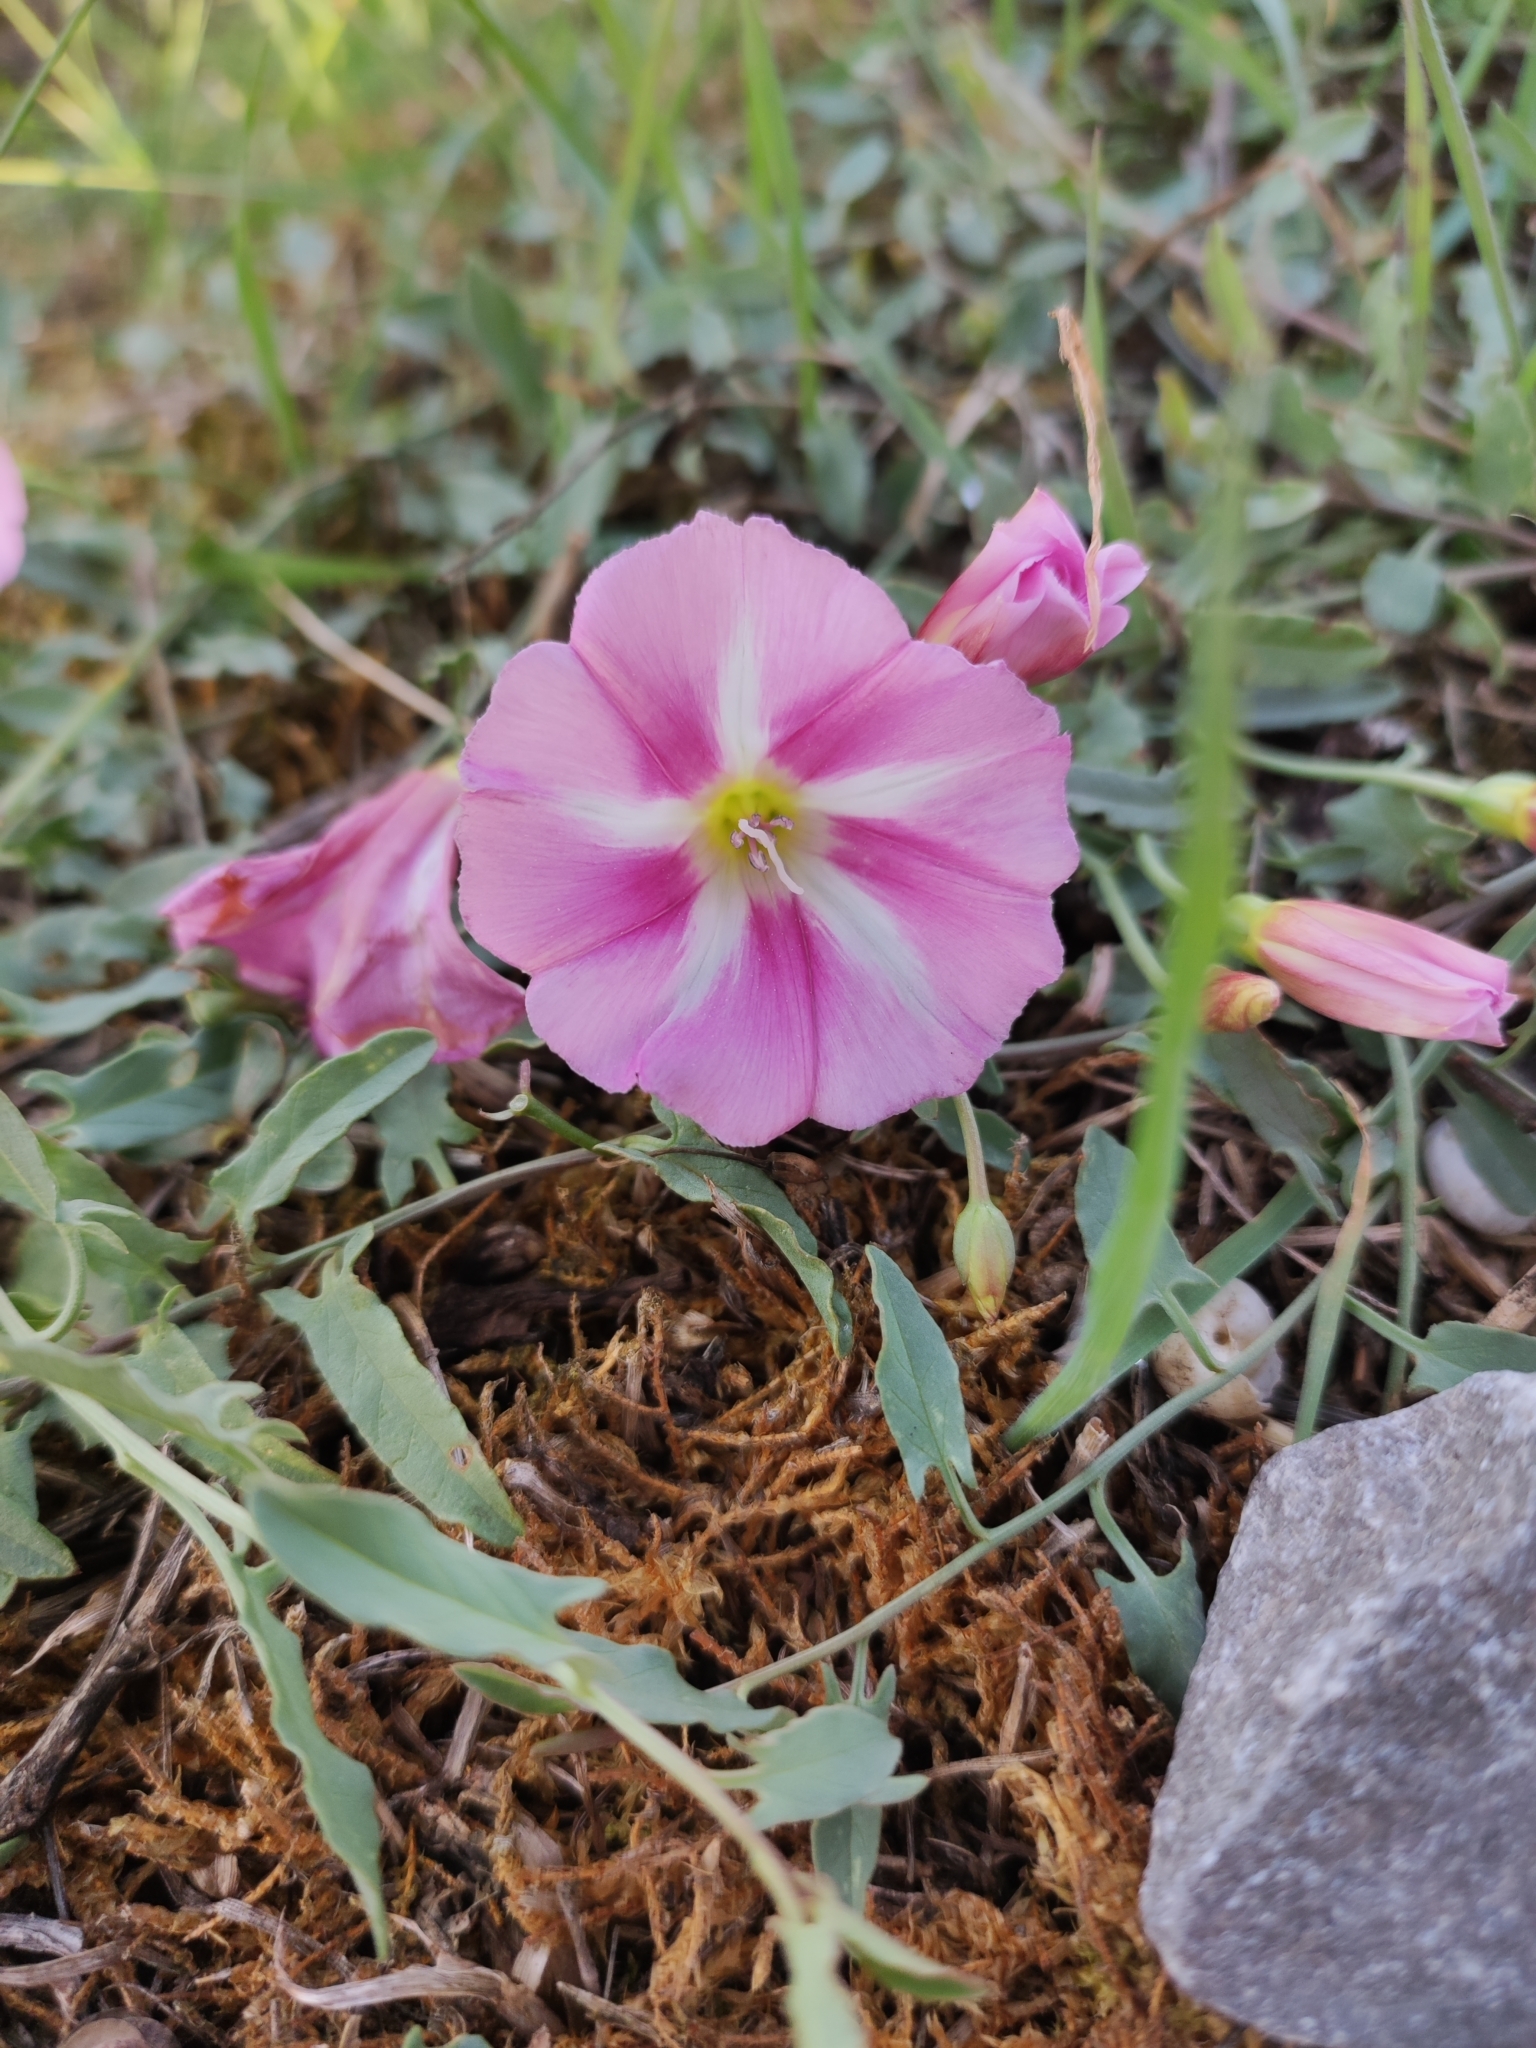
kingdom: Plantae
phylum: Tracheophyta
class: Magnoliopsida
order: Solanales
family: Convolvulaceae
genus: Convolvulus
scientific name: Convolvulus arvensis
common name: Field bindweed
